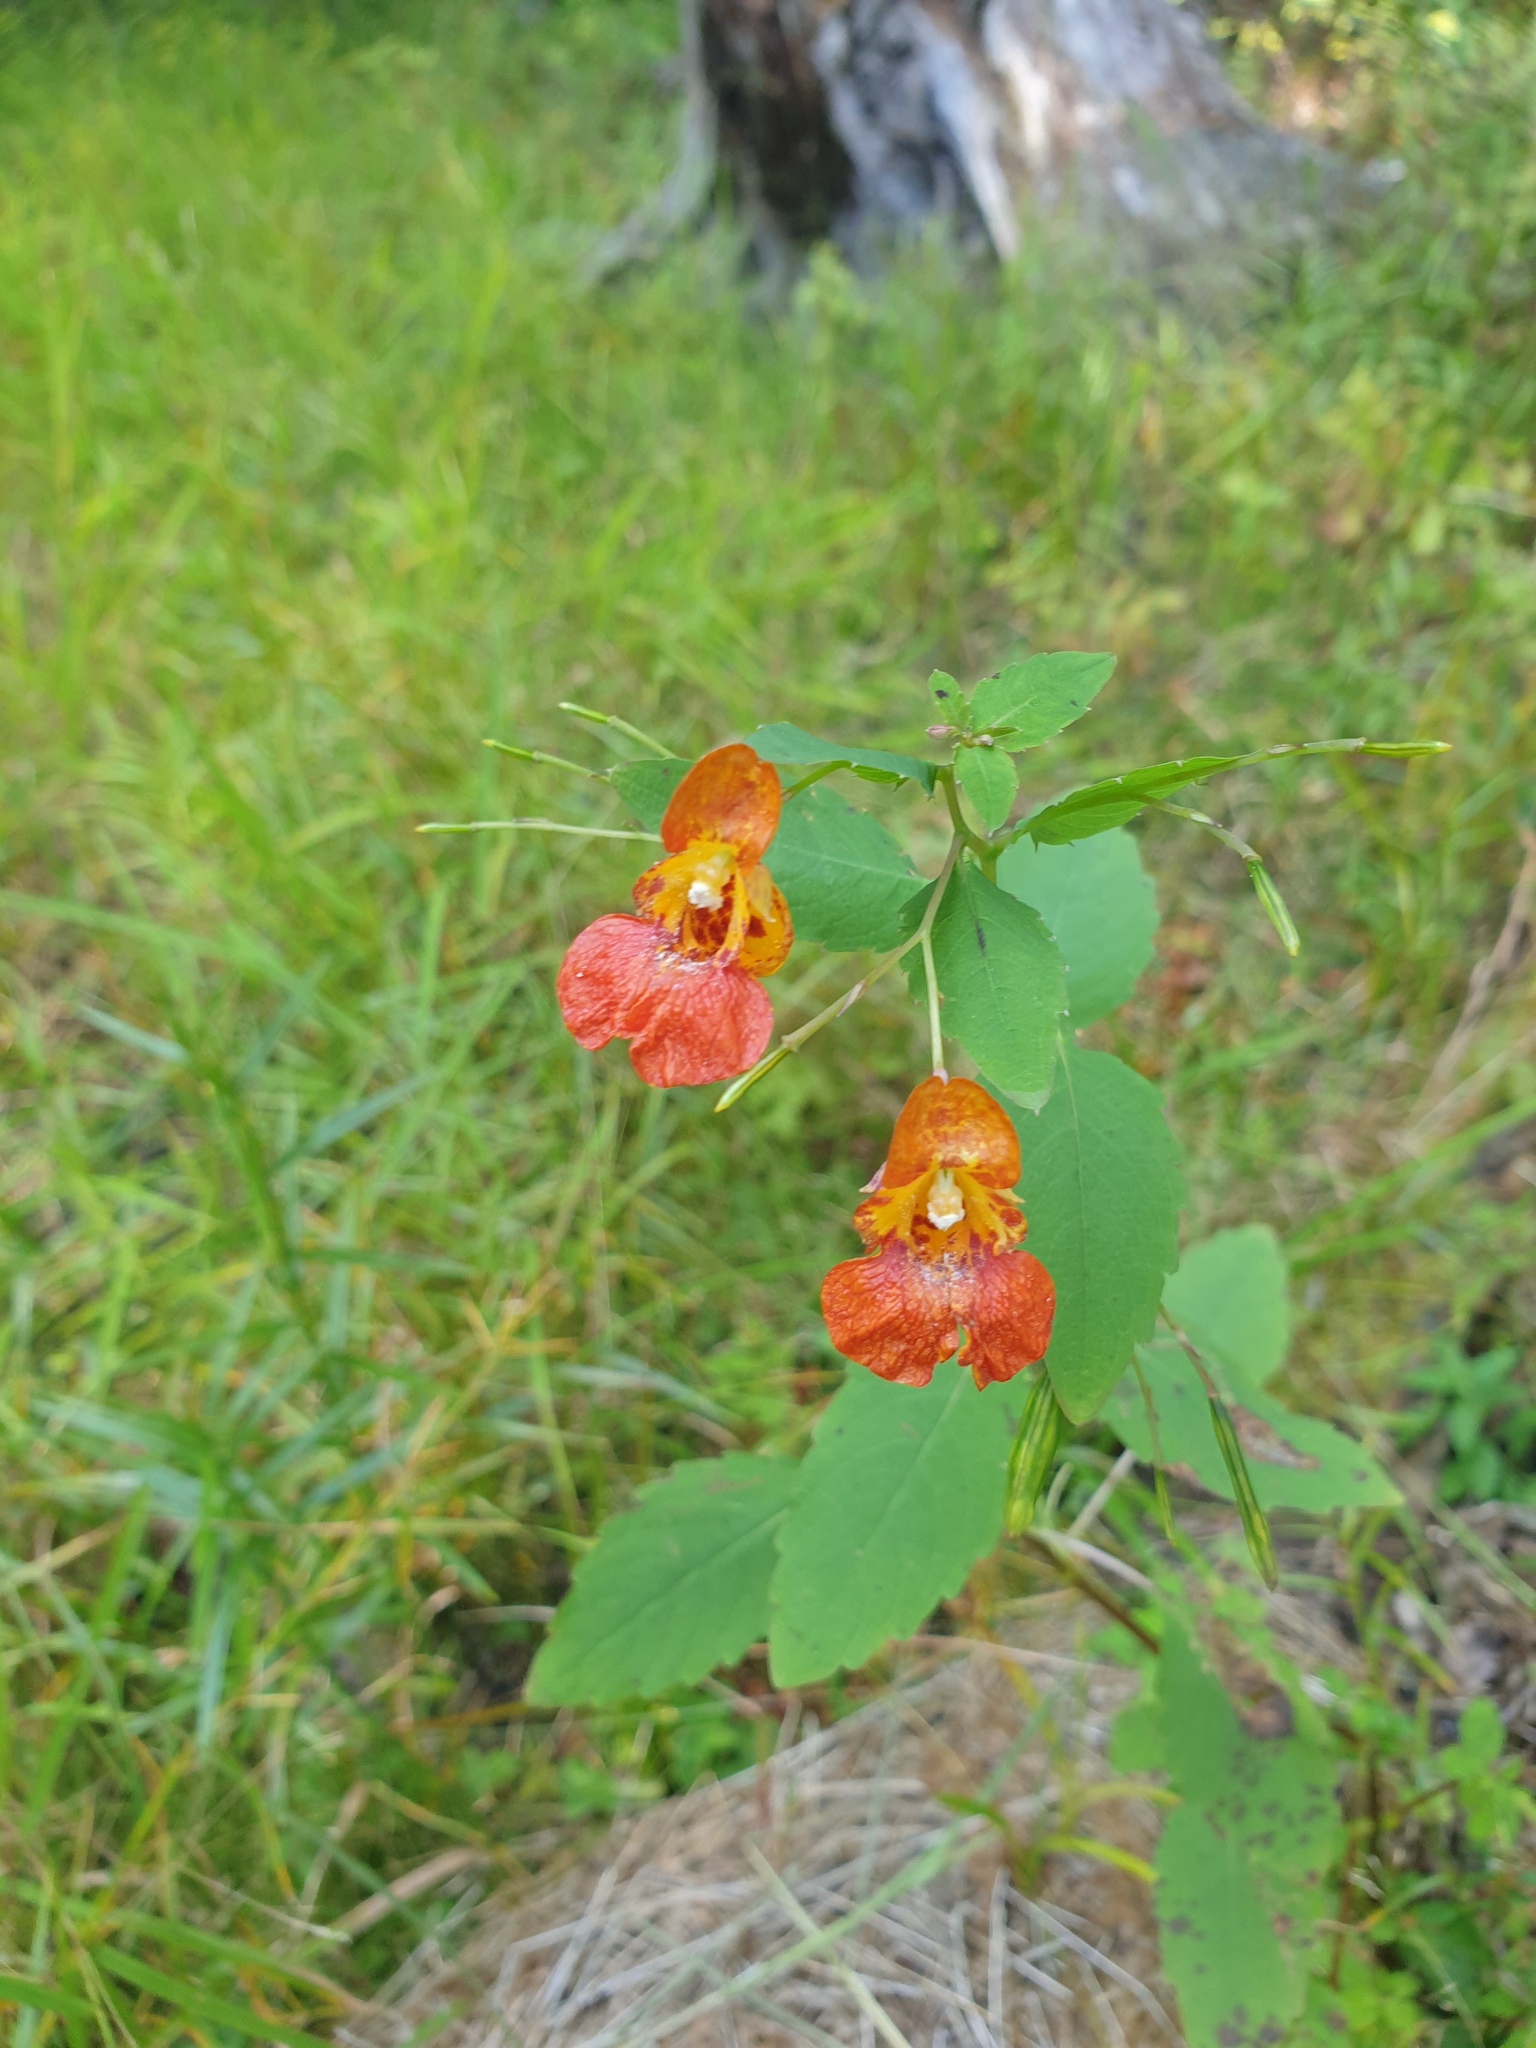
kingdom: Plantae
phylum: Tracheophyta
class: Magnoliopsida
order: Ericales
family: Balsaminaceae
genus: Impatiens
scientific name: Impatiens capensis
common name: Orange balsam
